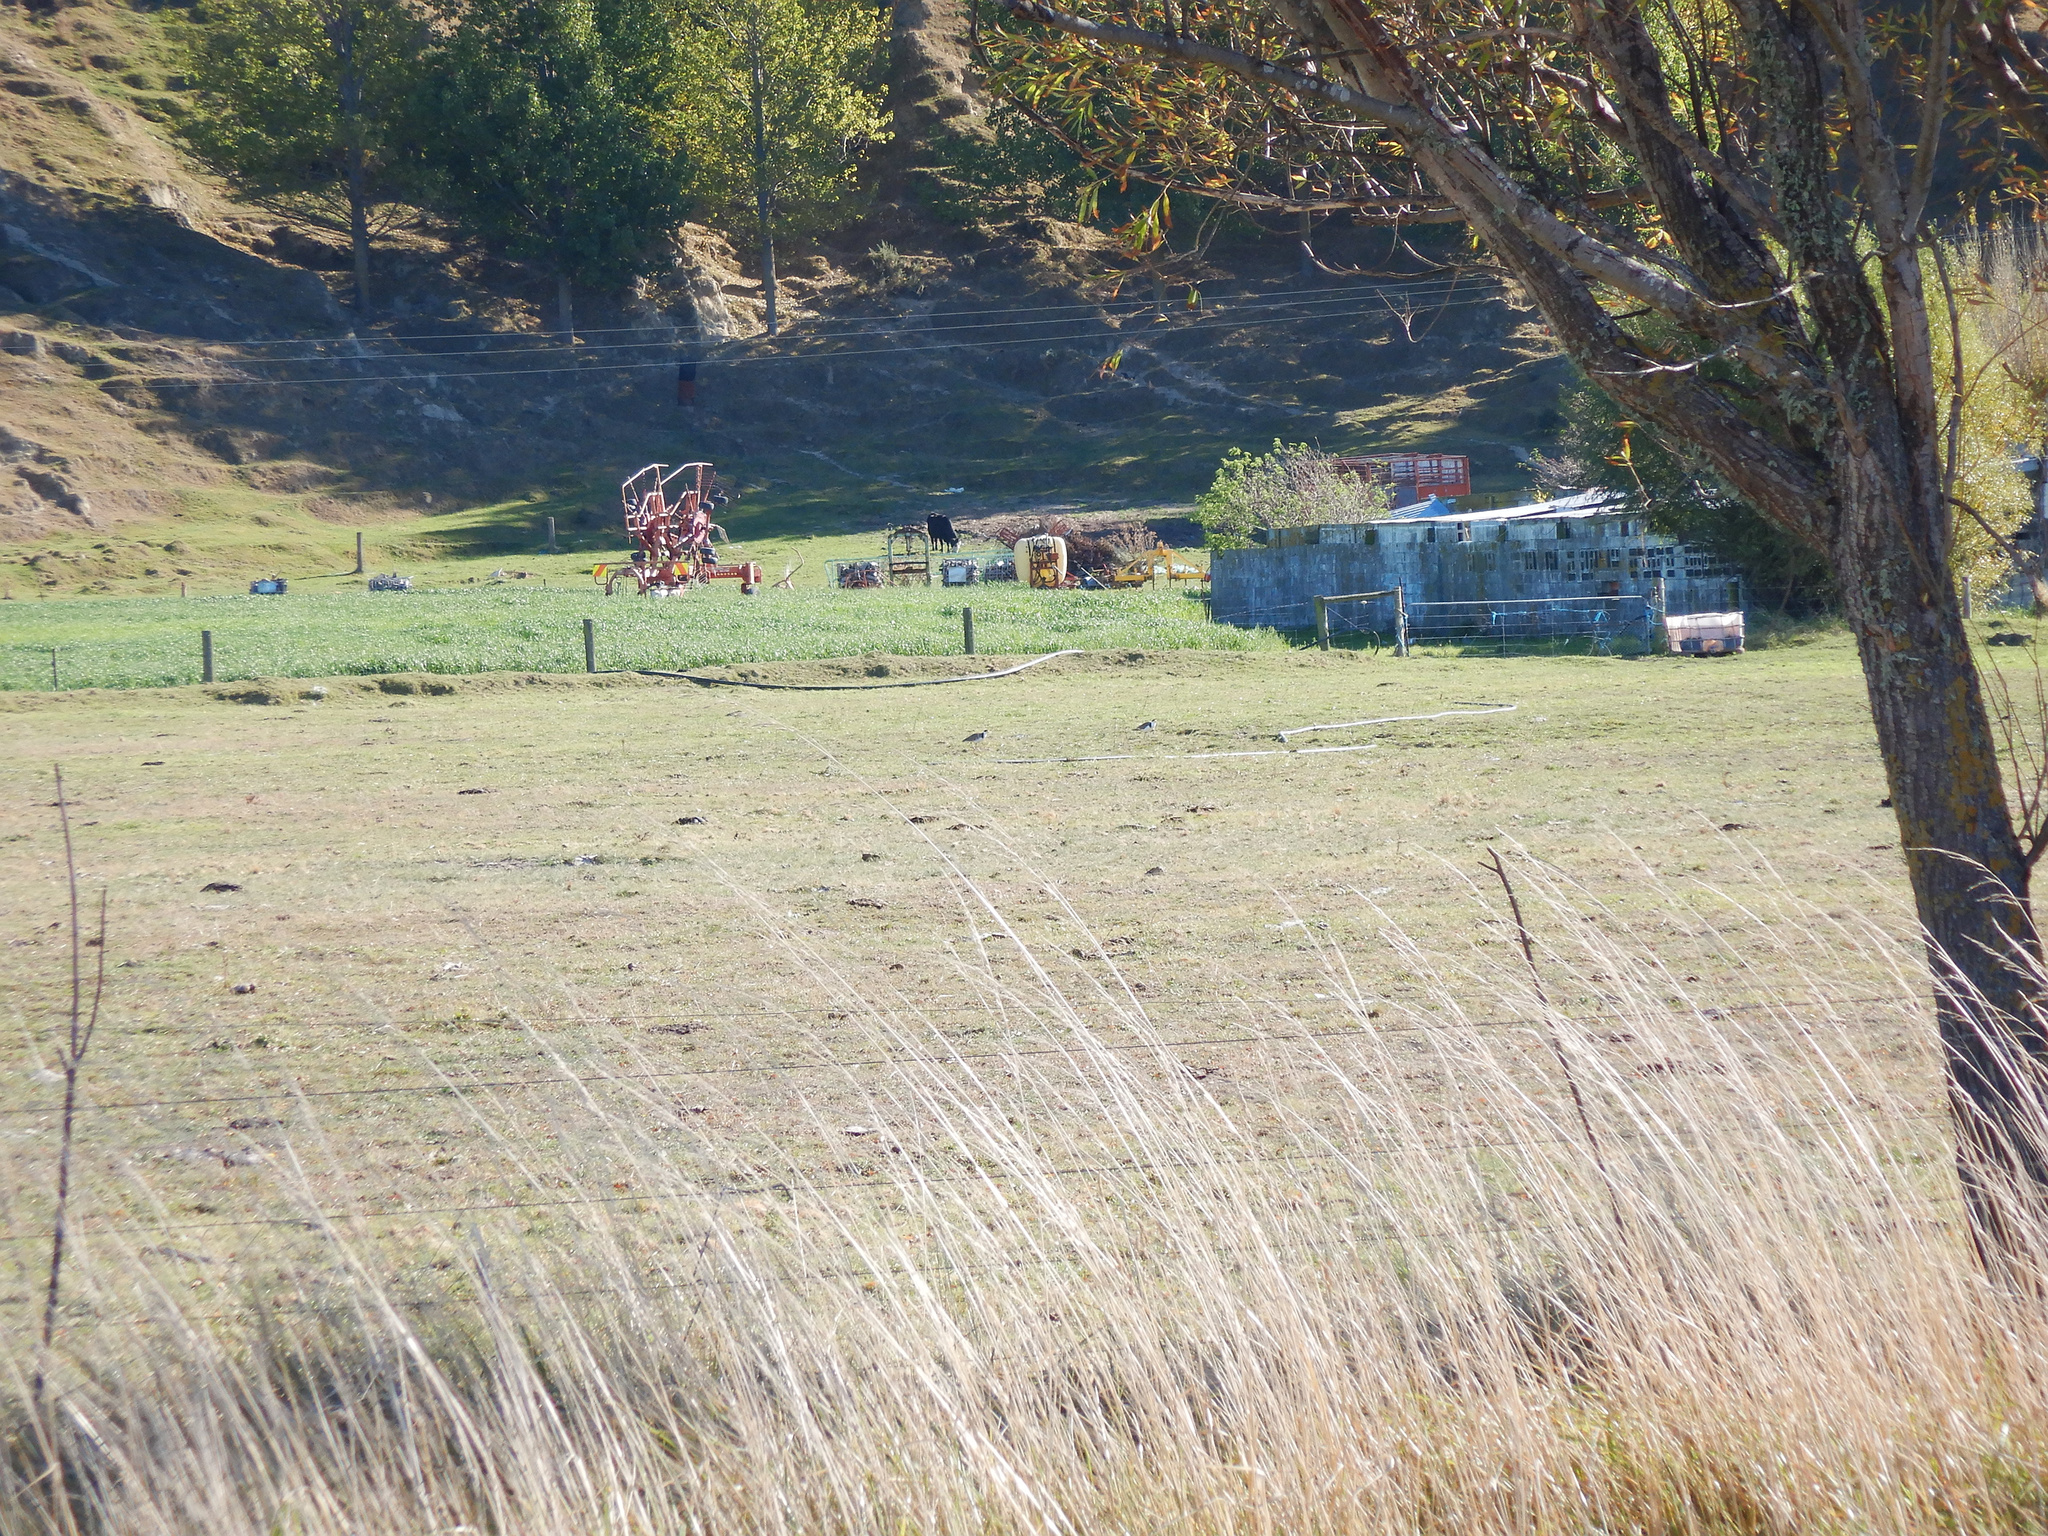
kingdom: Animalia
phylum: Chordata
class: Aves
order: Charadriiformes
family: Charadriidae
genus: Vanellus
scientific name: Vanellus miles
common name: Masked lapwing
